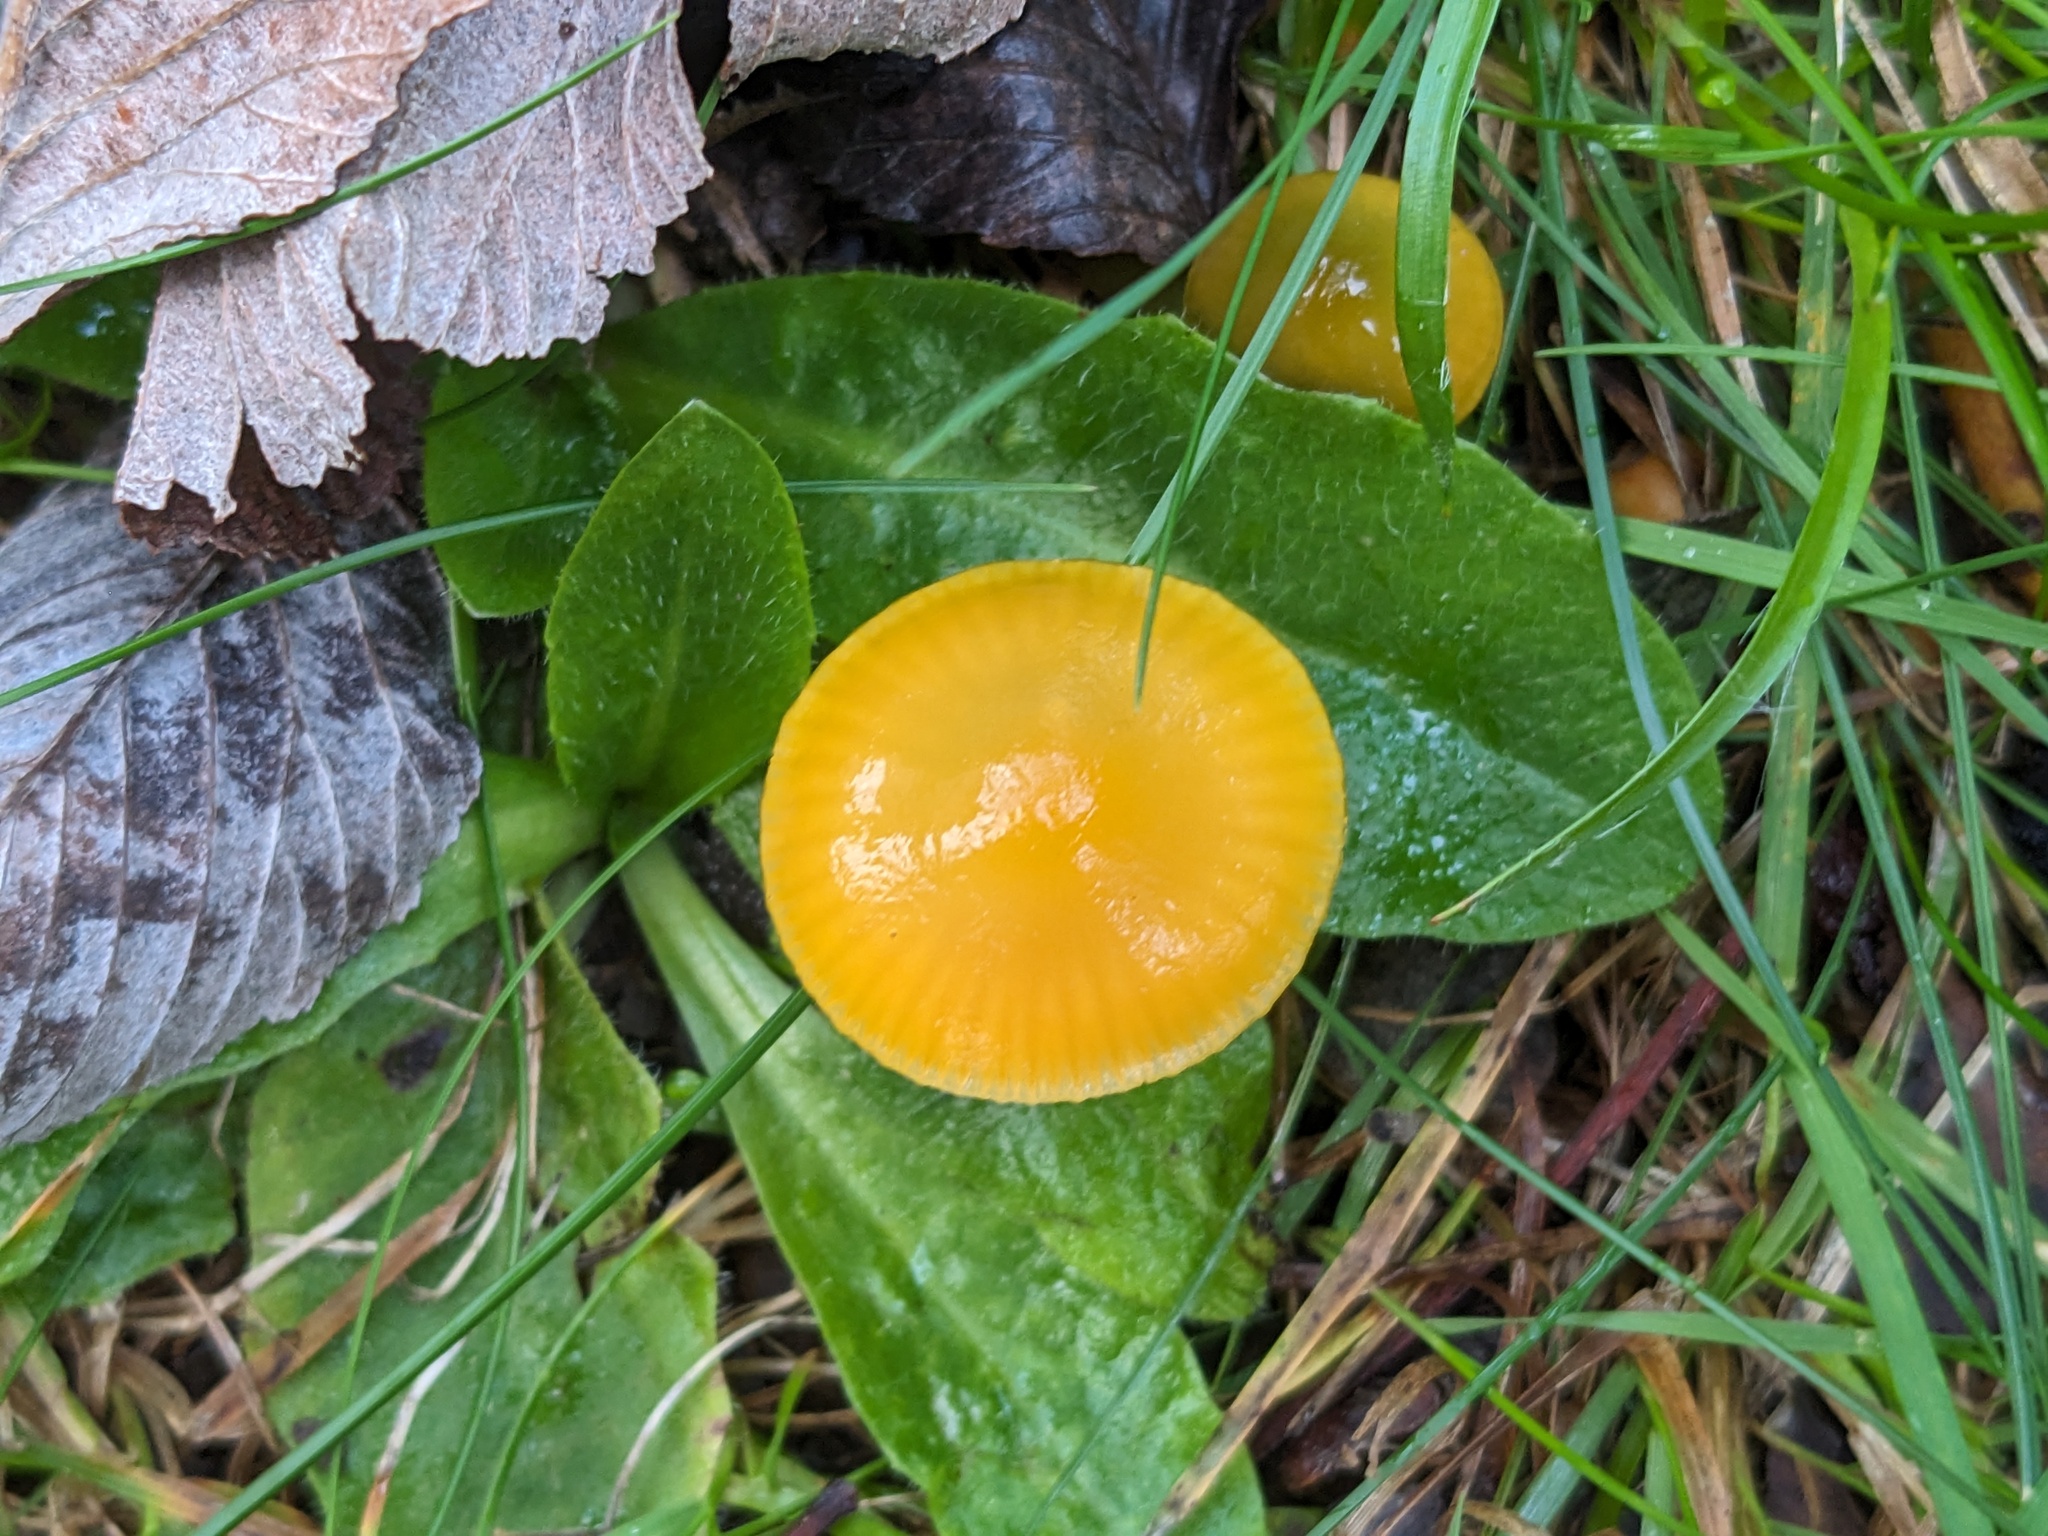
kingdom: Fungi
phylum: Basidiomycota
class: Agaricomycetes
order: Agaricales
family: Hygrophoraceae
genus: Gliophorus
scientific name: Gliophorus psittacinus
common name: Parrot wax-cap
